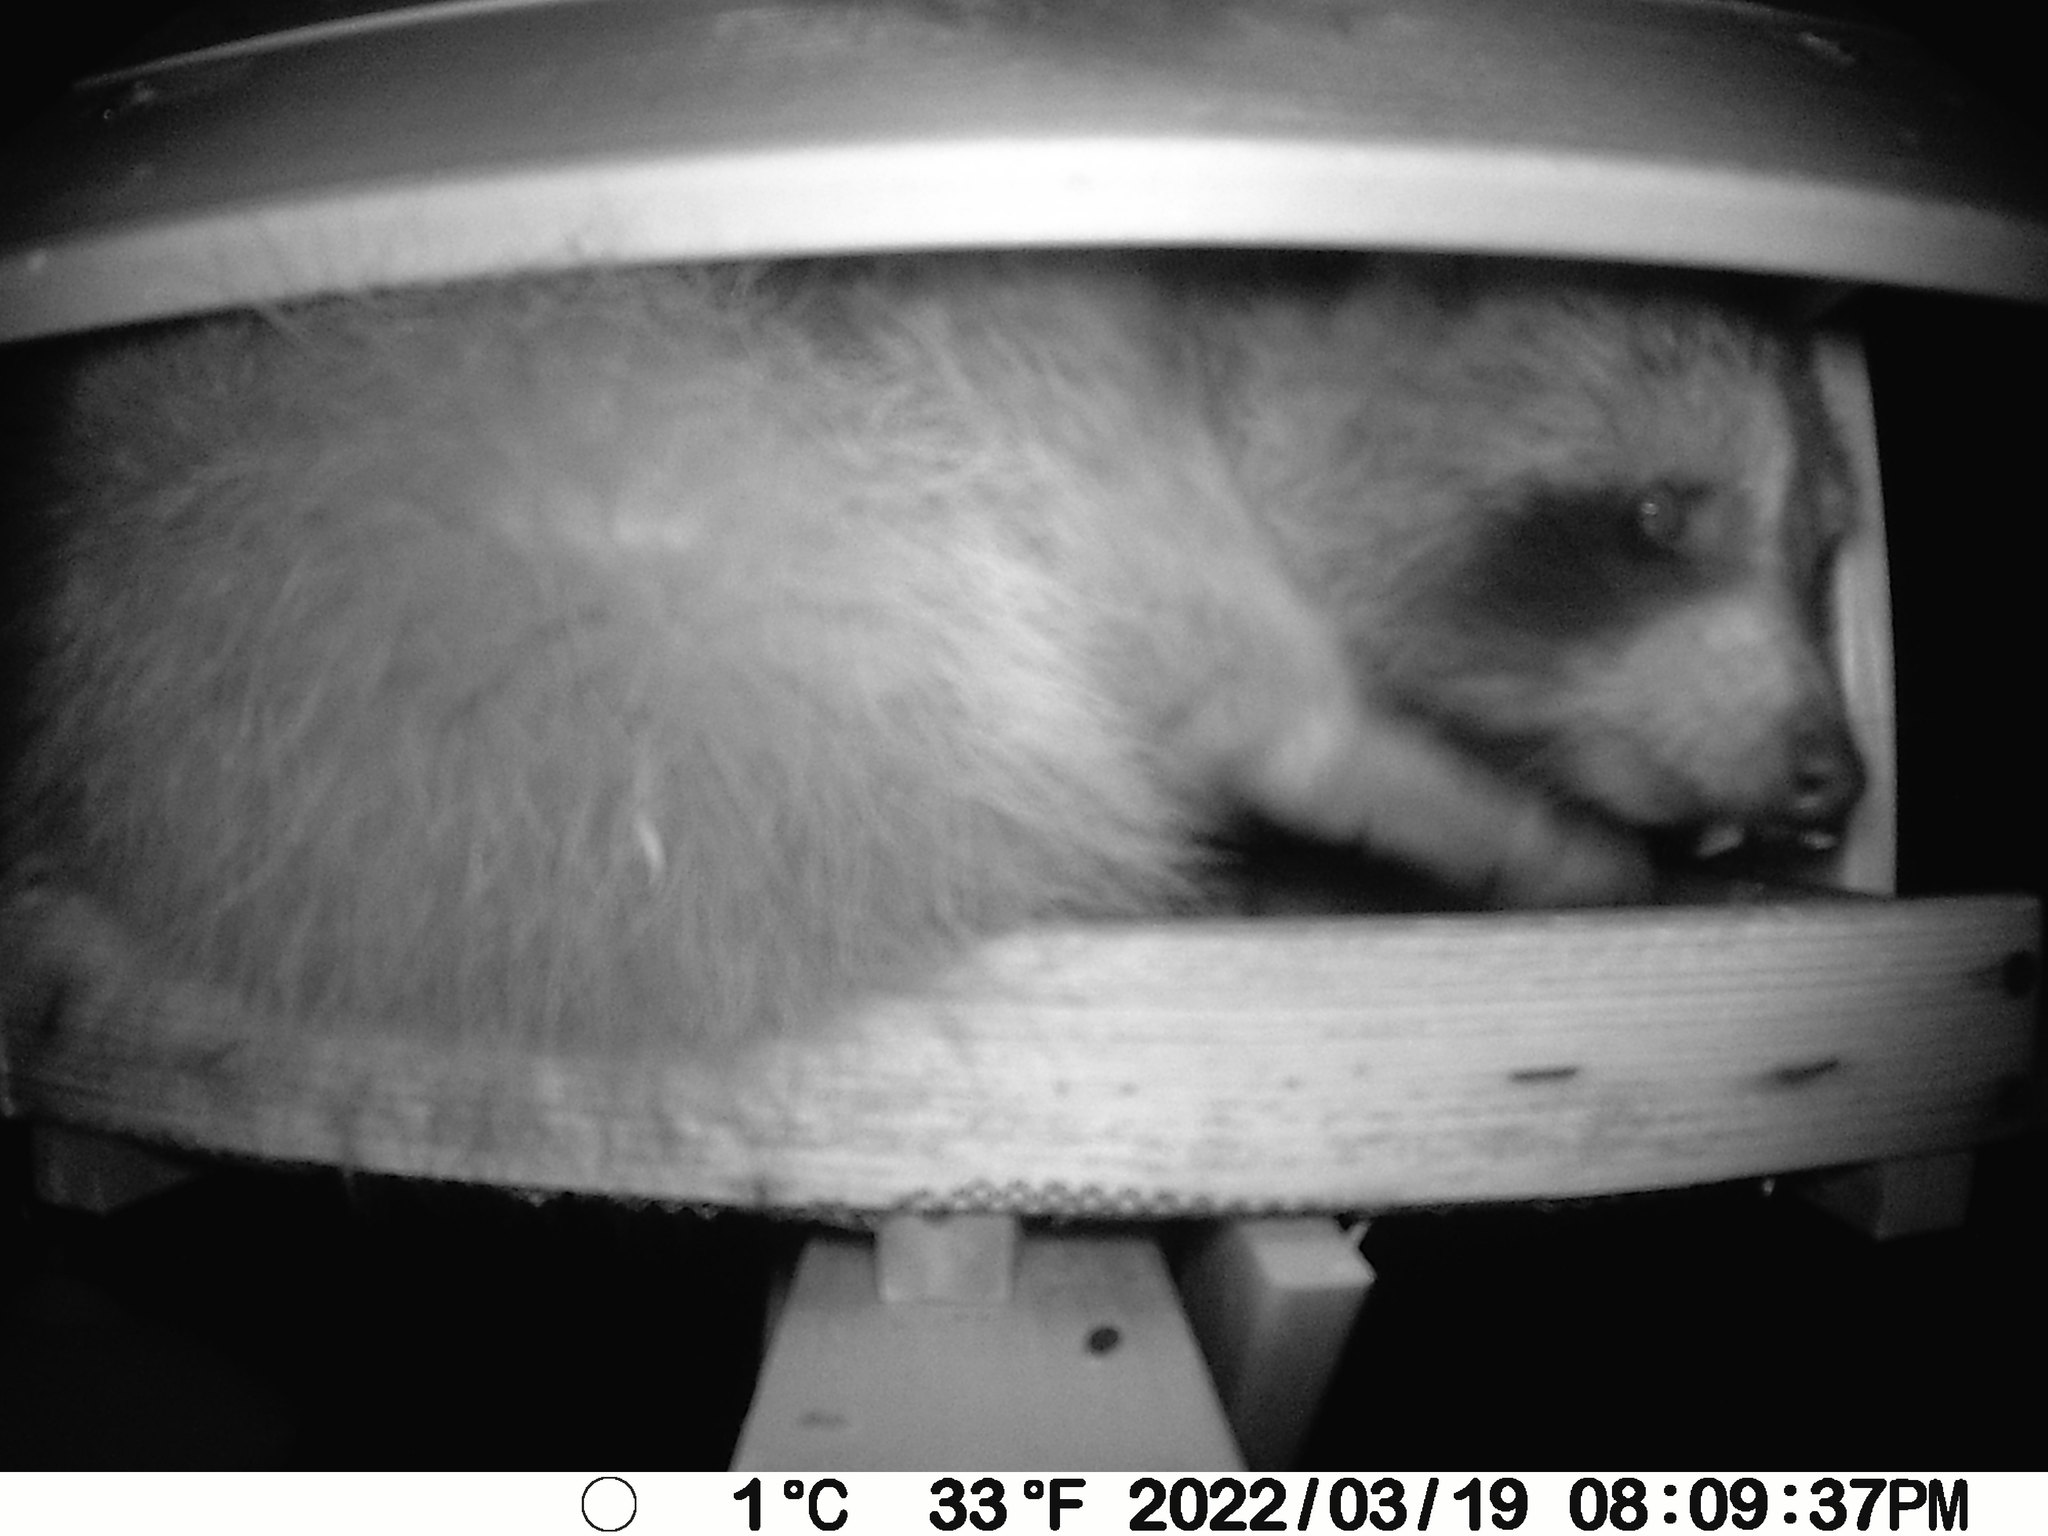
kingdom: Animalia
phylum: Chordata
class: Mammalia
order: Carnivora
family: Procyonidae
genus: Procyon
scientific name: Procyon lotor
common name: Raccoon
